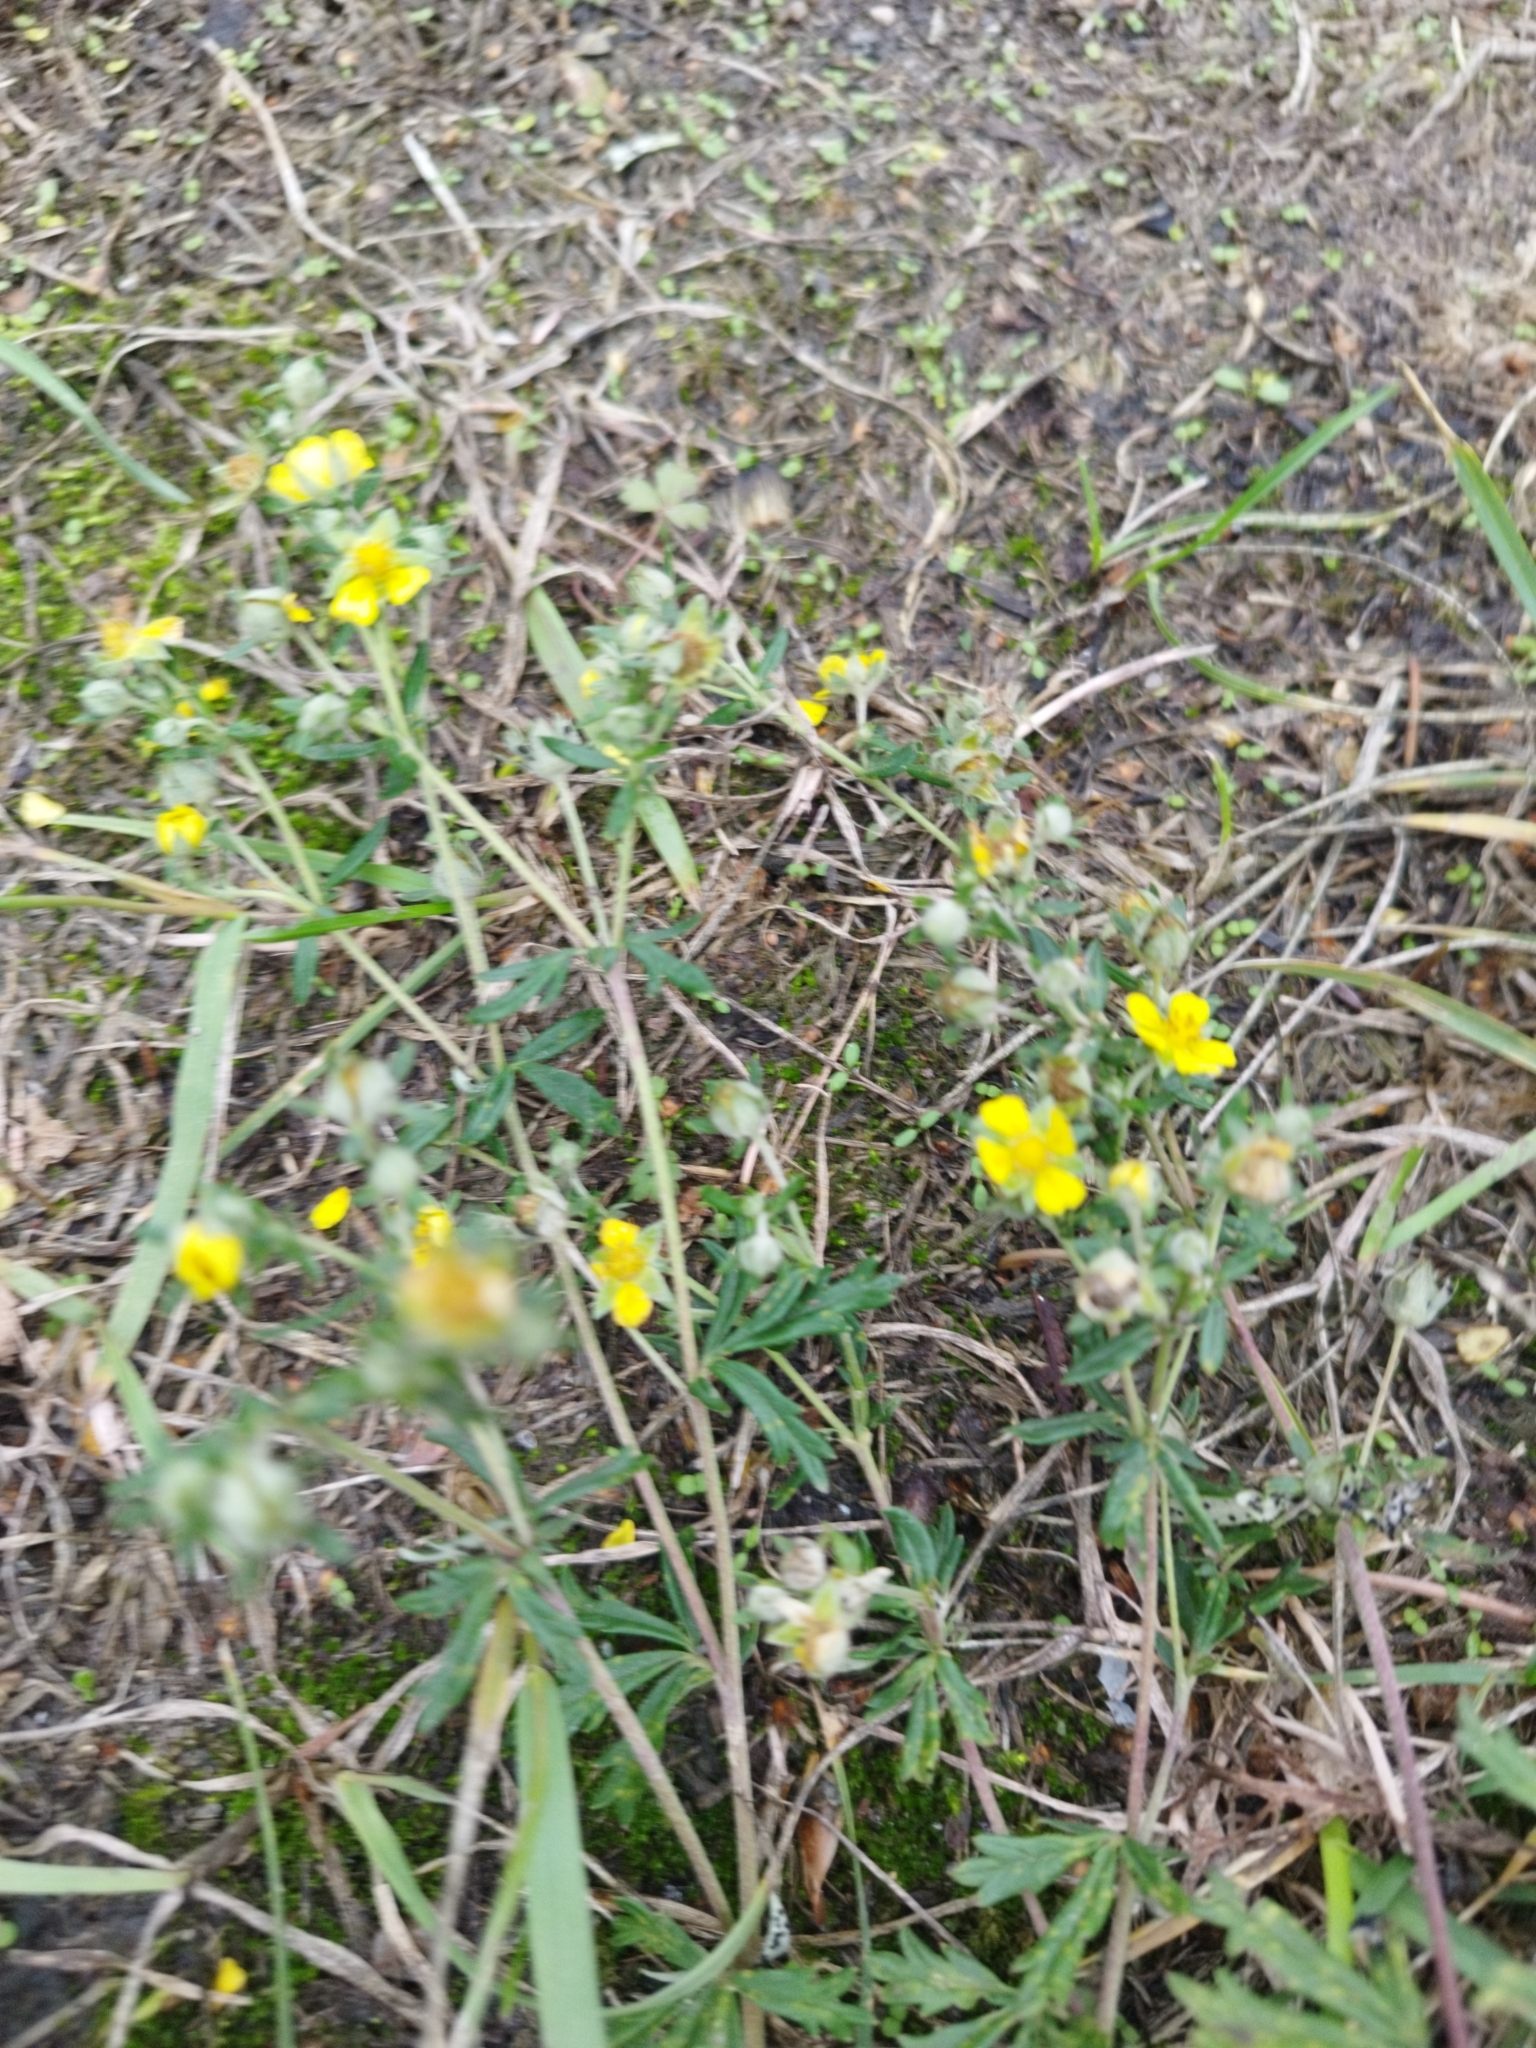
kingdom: Plantae
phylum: Tracheophyta
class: Magnoliopsida
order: Rosales
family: Rosaceae
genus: Potentilla
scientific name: Potentilla argentea
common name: Hoary cinquefoil
